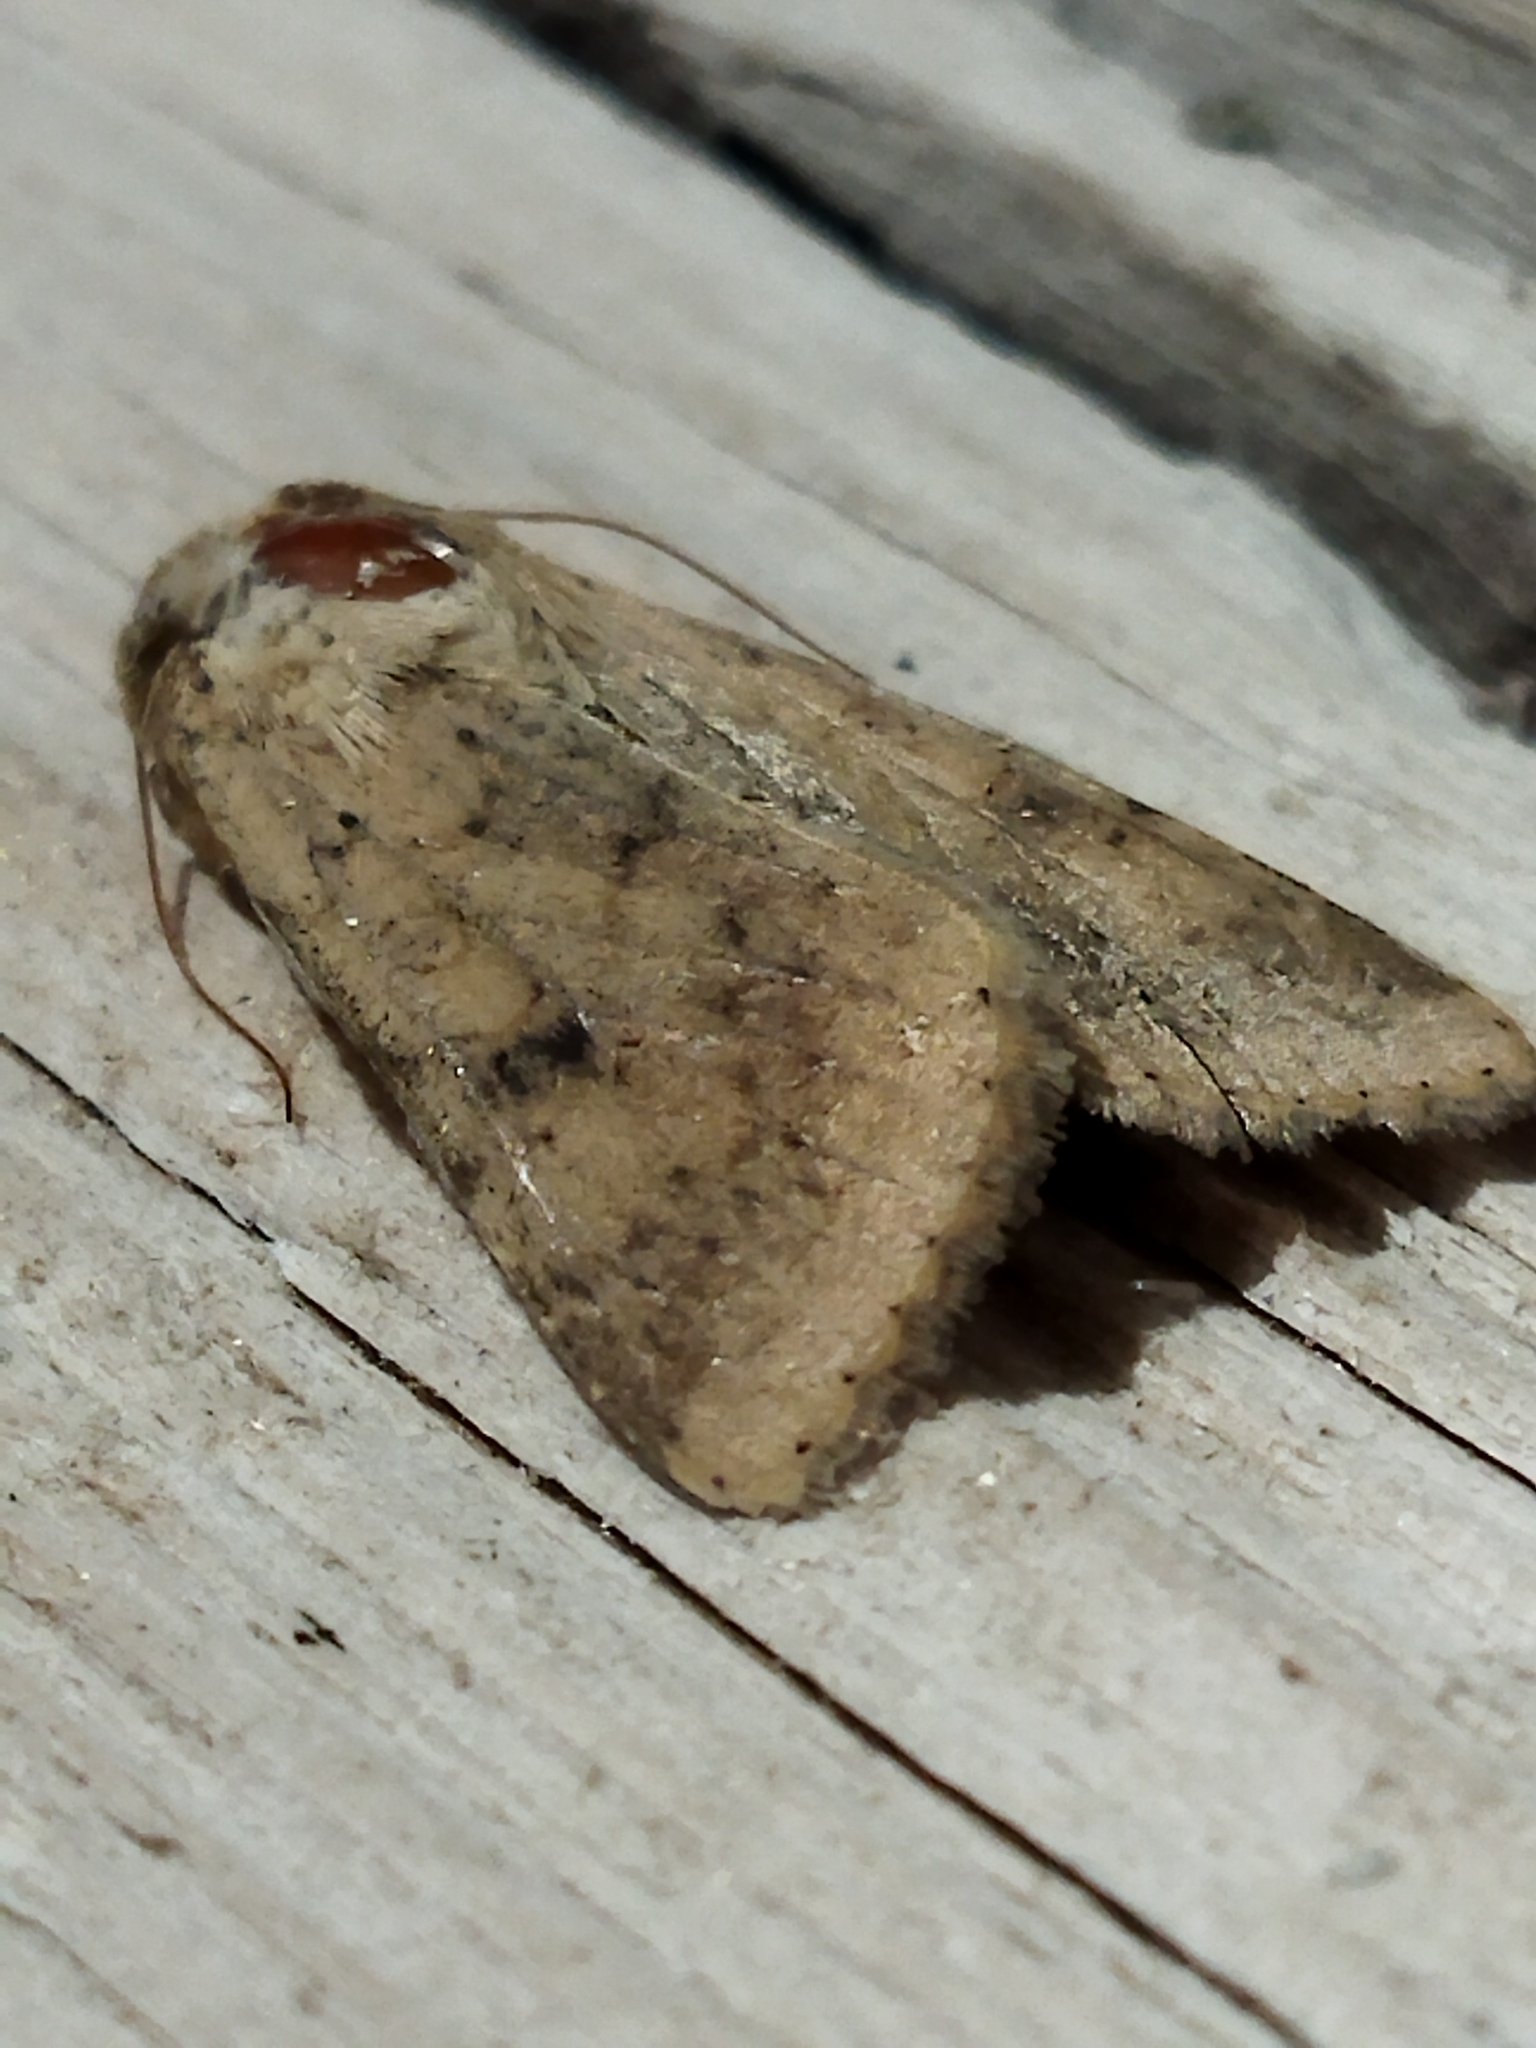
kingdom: Animalia
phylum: Arthropoda
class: Insecta
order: Lepidoptera
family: Noctuidae
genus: Helicoverpa
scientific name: Helicoverpa armigera
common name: Cotton bollworm
